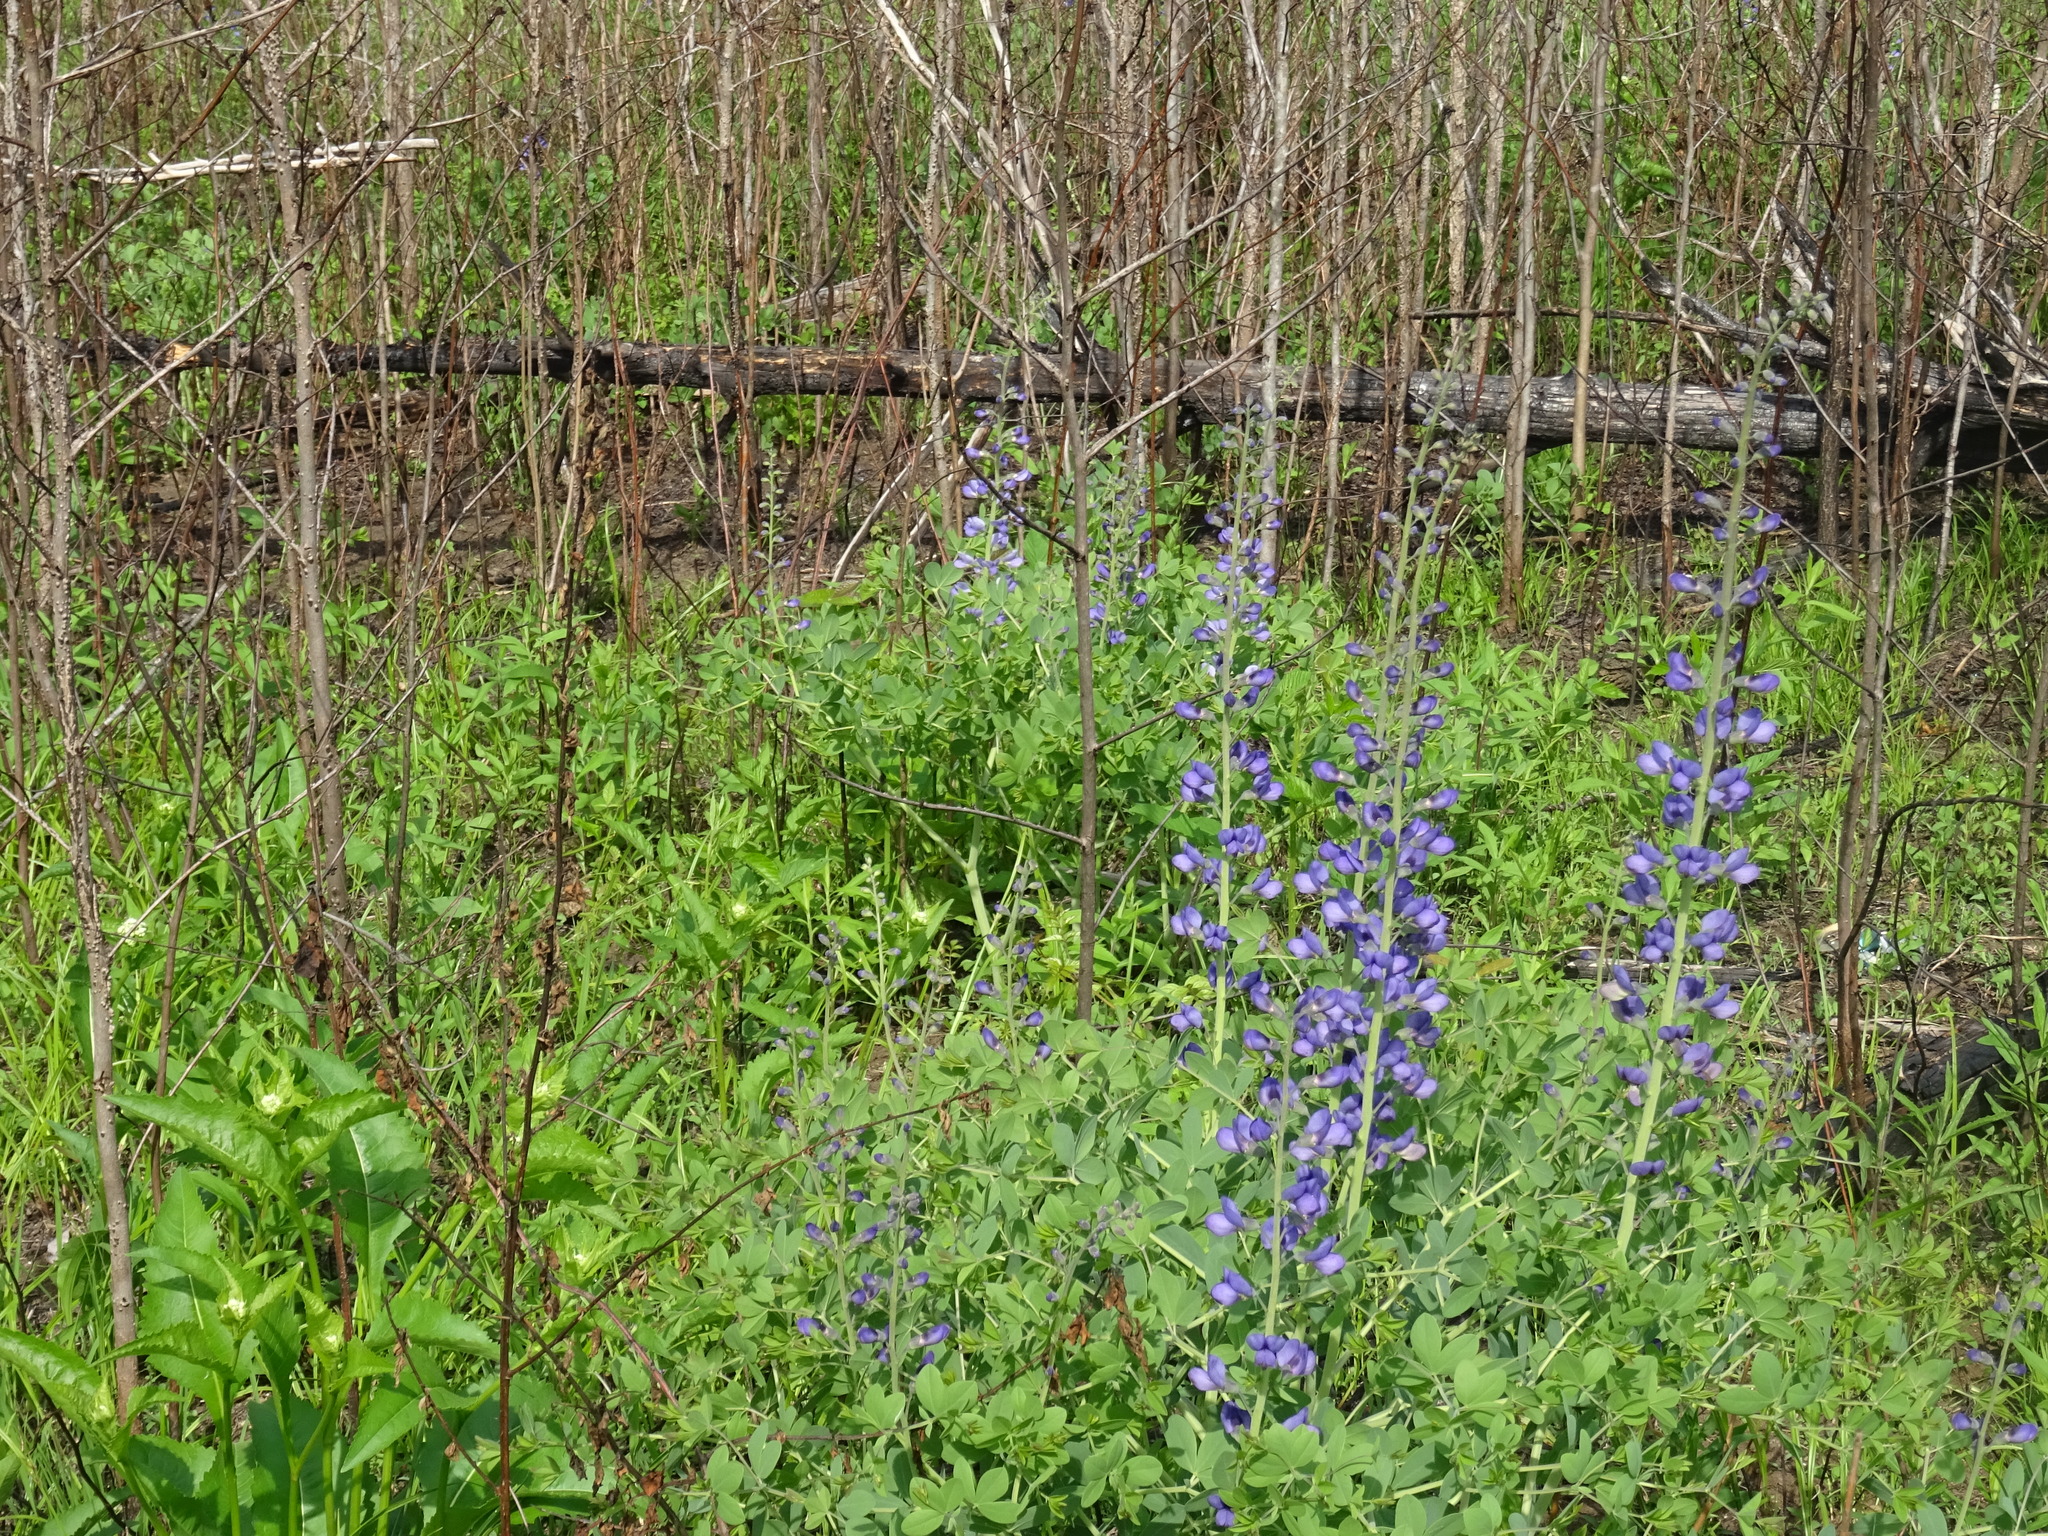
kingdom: Plantae
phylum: Tracheophyta
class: Magnoliopsida
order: Fabales
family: Fabaceae
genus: Baptisia
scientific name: Baptisia australis
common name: Blue false indigo
